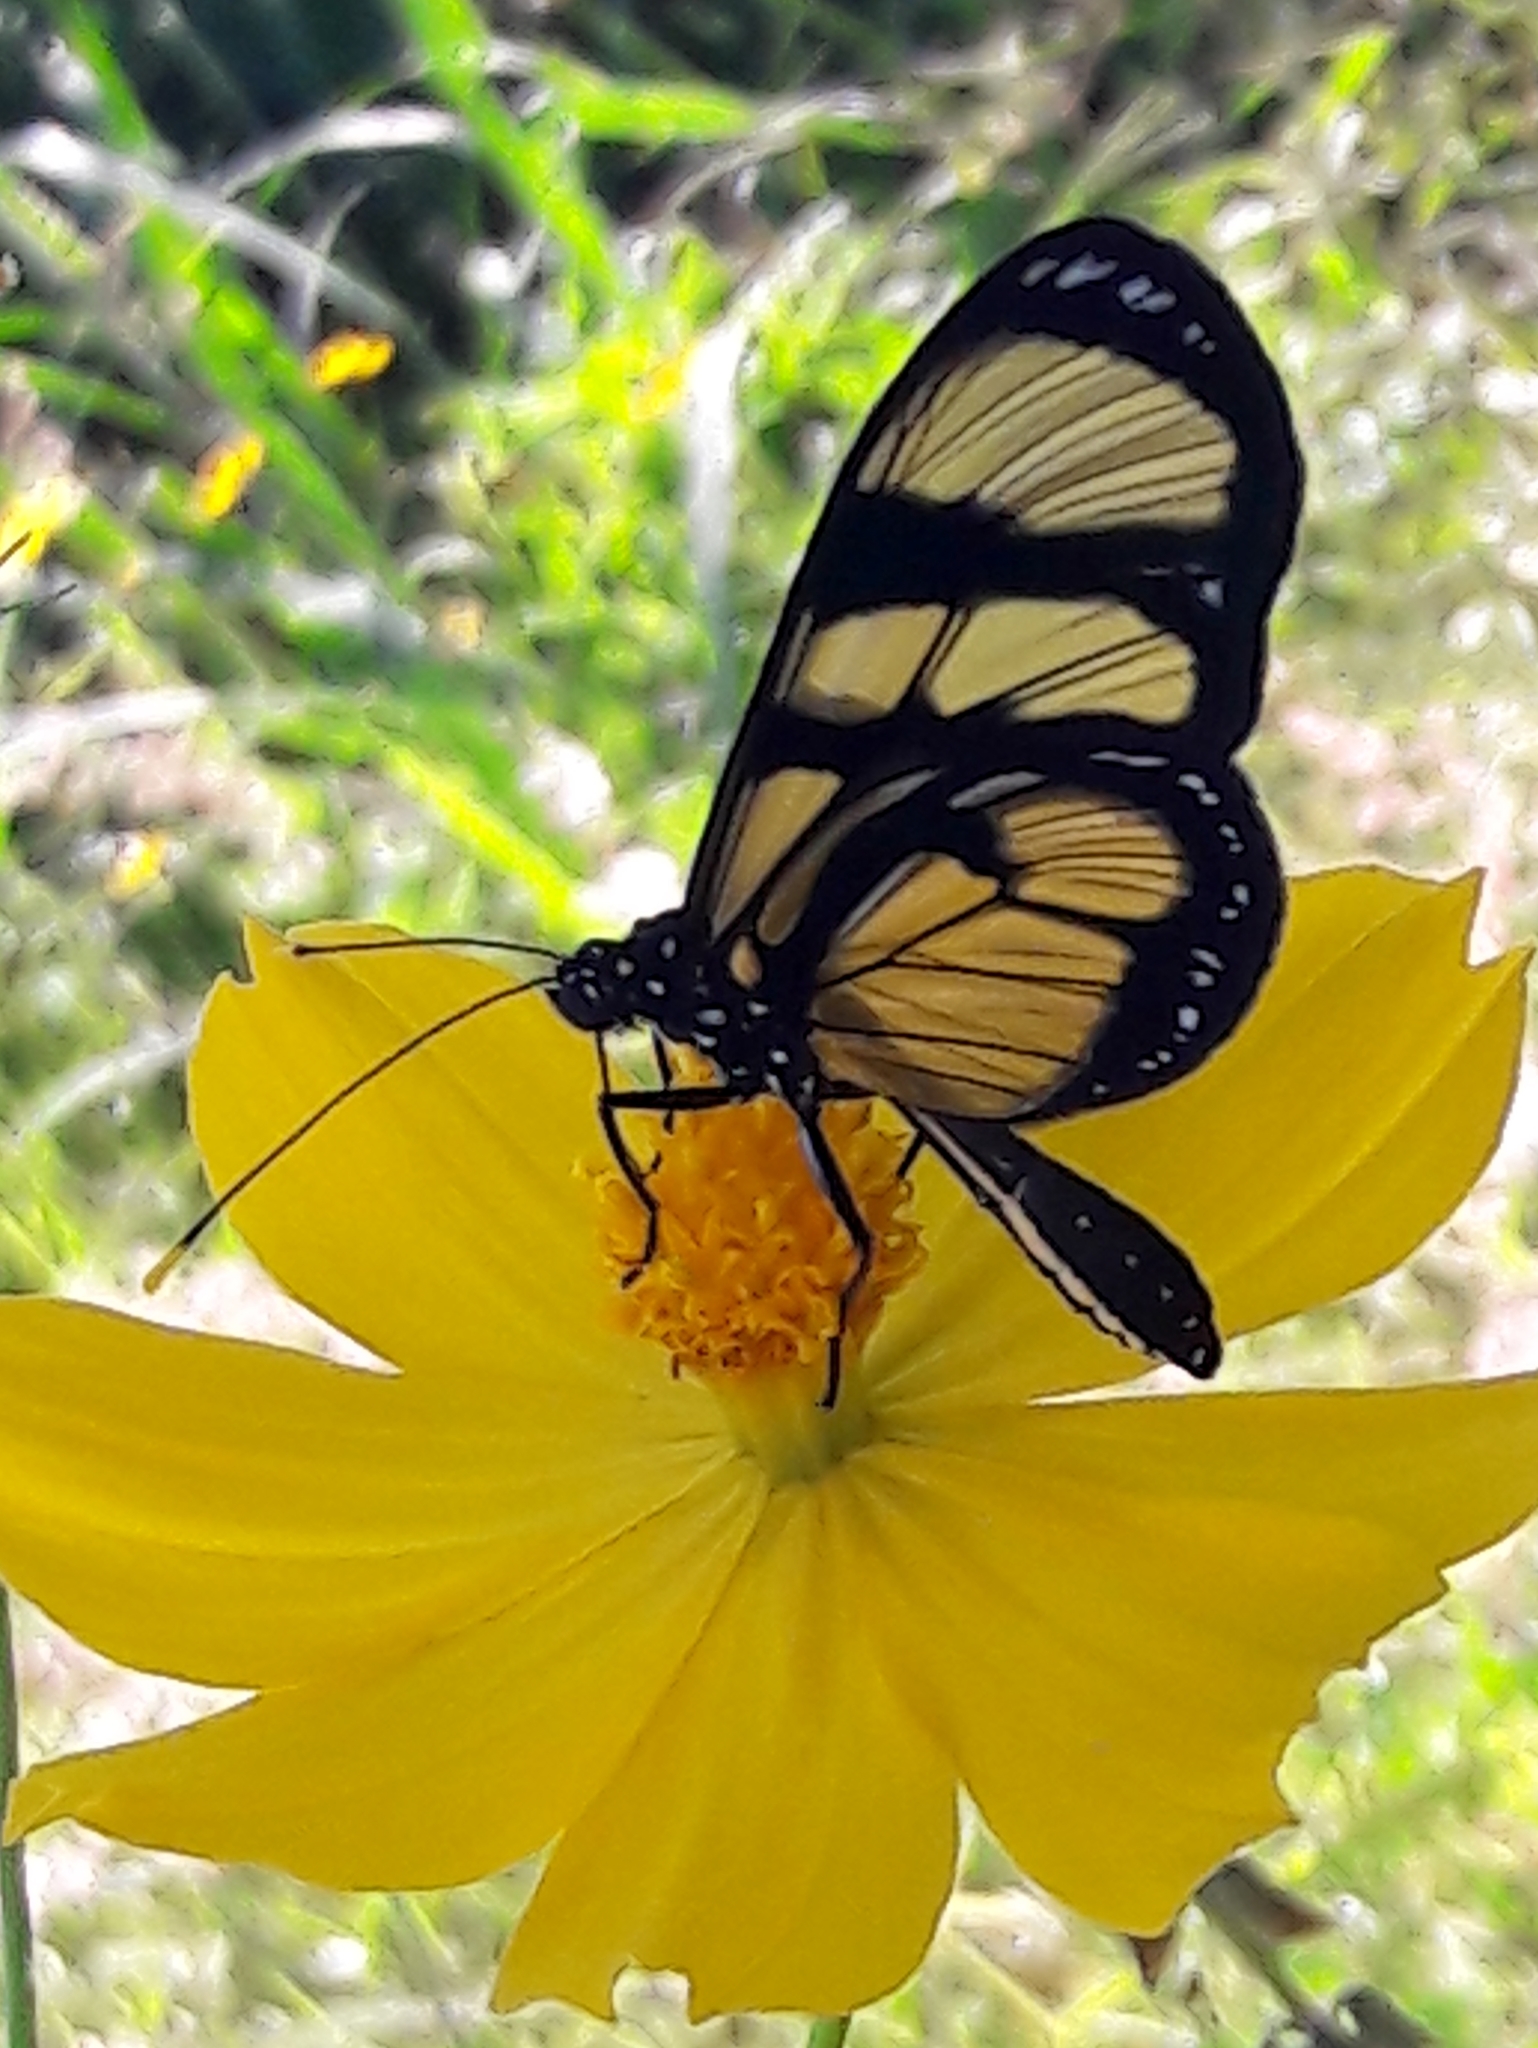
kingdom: Animalia
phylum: Arthropoda
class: Insecta
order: Lepidoptera
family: Nymphalidae
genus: Methona
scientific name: Methona themisto
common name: Themisto amberwing
